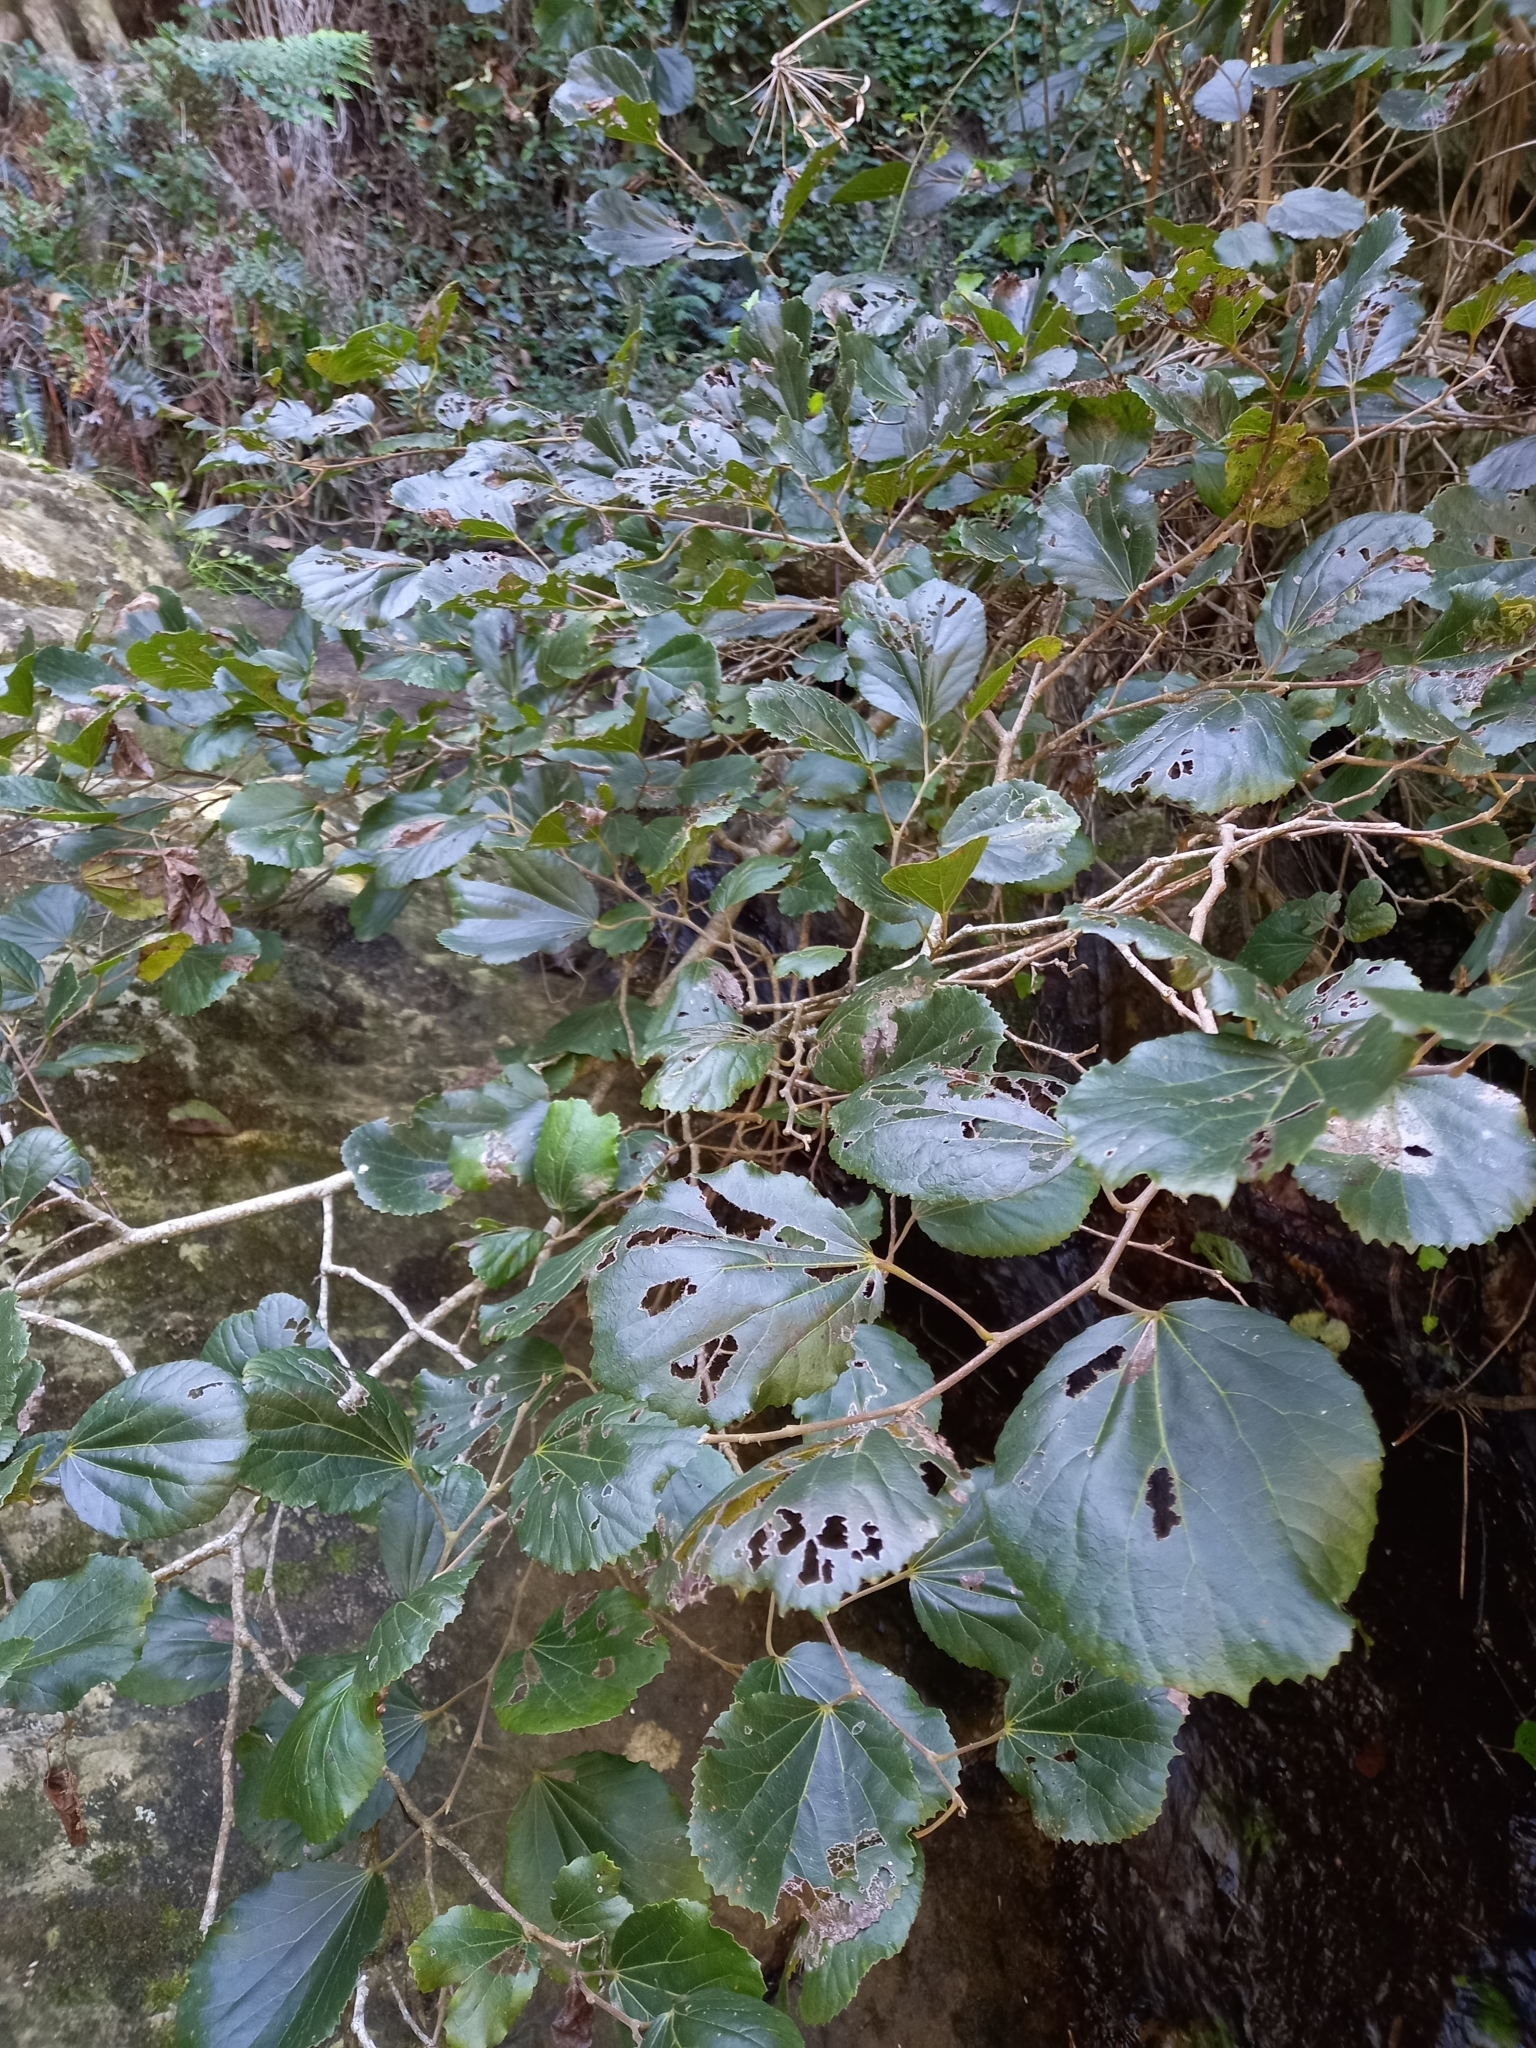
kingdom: Plantae
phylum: Tracheophyta
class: Magnoliopsida
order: Malpighiales
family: Salicaceae
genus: Trimeria
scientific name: Trimeria grandifolia
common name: Wild mulberry
